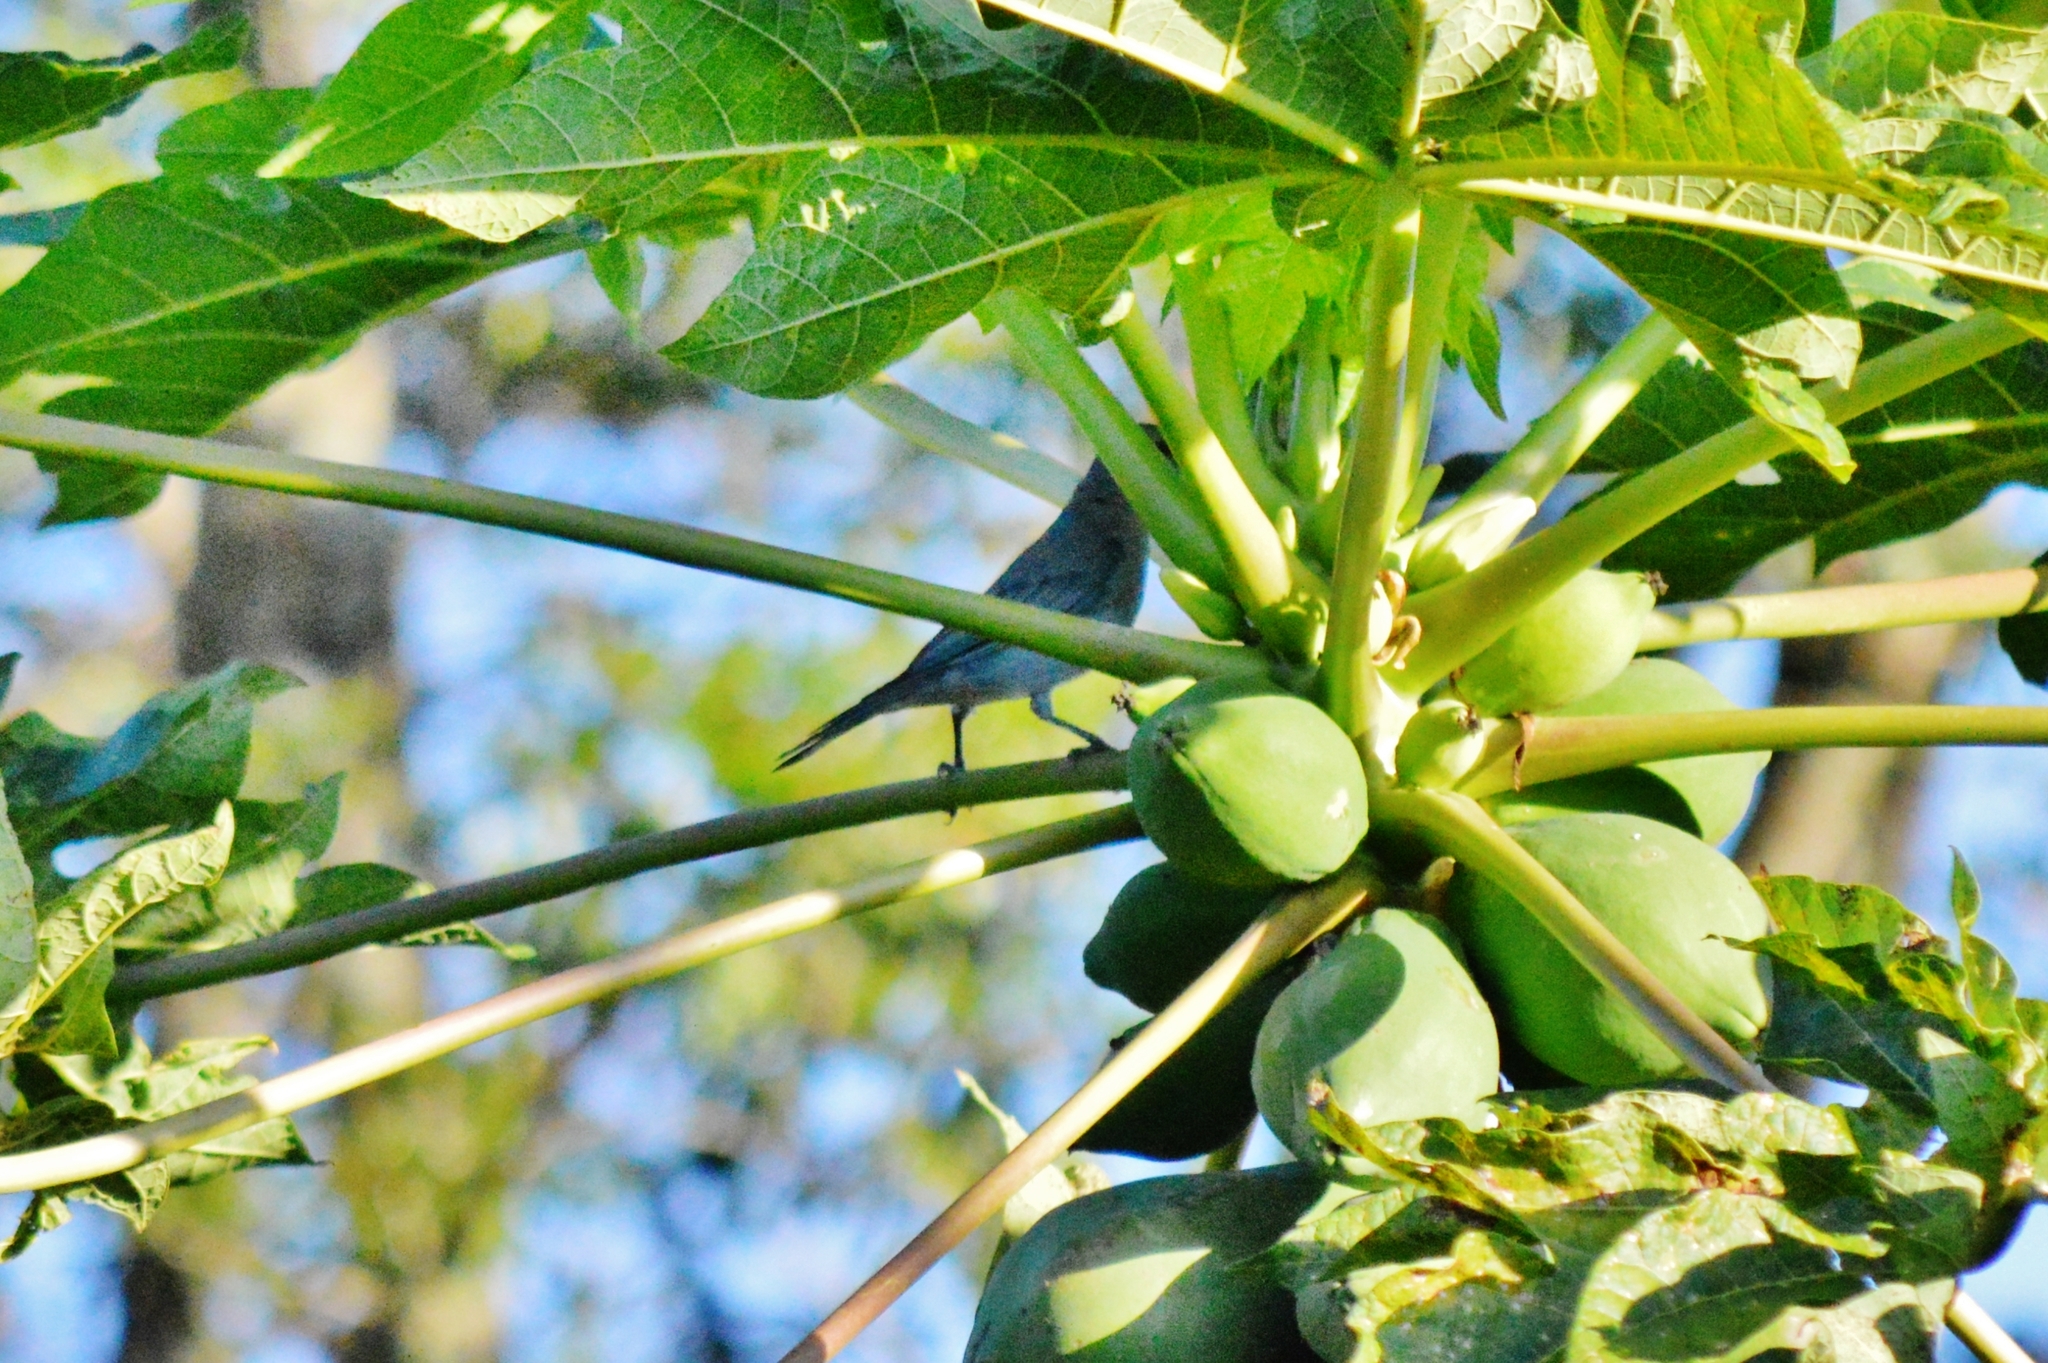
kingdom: Animalia
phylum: Chordata
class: Aves
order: Passeriformes
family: Thraupidae
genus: Thraupis
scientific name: Thraupis sayaca
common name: Sayaca tanager
